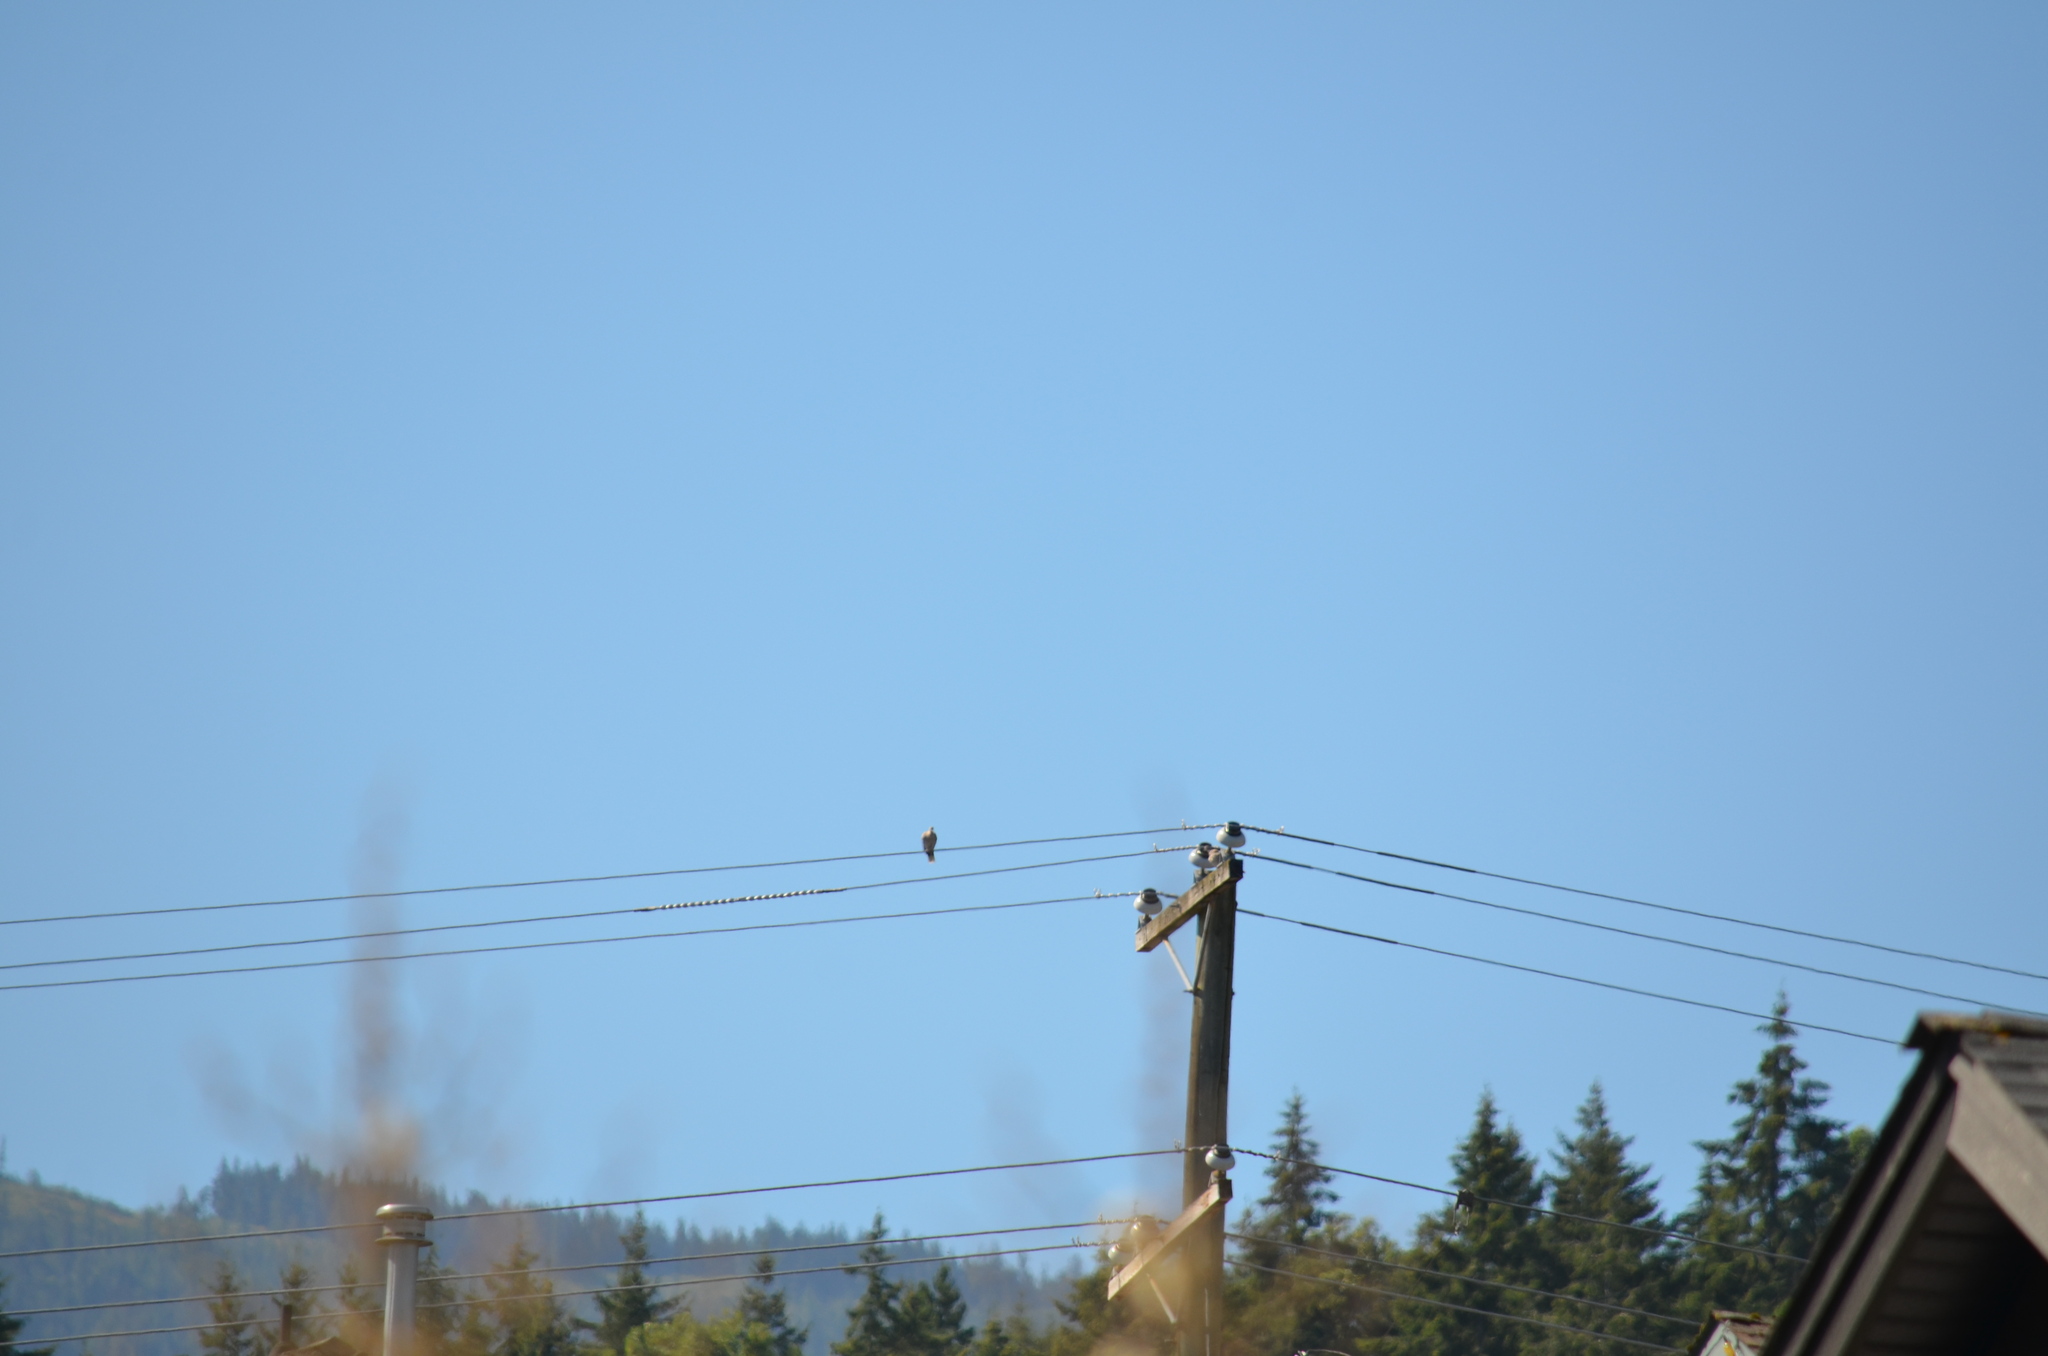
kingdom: Animalia
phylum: Chordata
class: Aves
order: Columbiformes
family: Columbidae
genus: Streptopelia
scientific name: Streptopelia decaocto
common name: Eurasian collared dove
